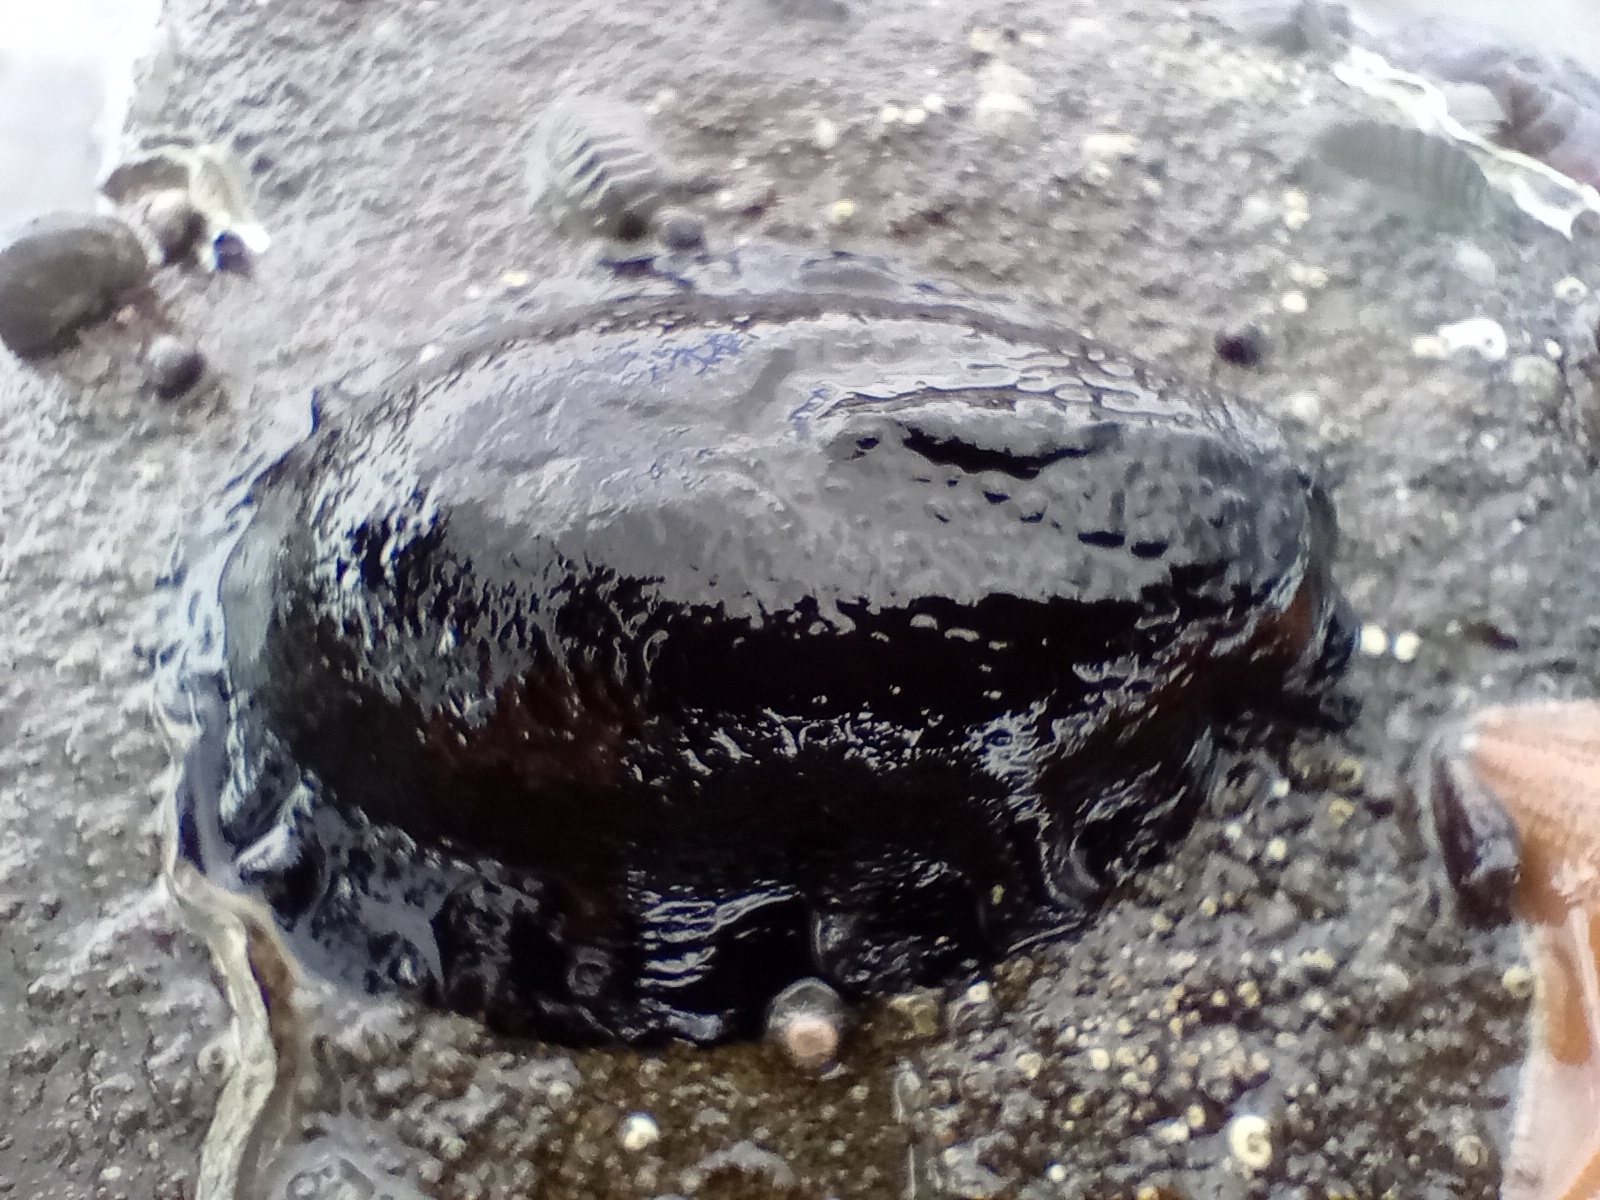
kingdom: Animalia
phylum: Mollusca
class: Gastropoda
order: Lepetellida
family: Fissurellidae
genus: Scutus
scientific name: Scutus breviculus
